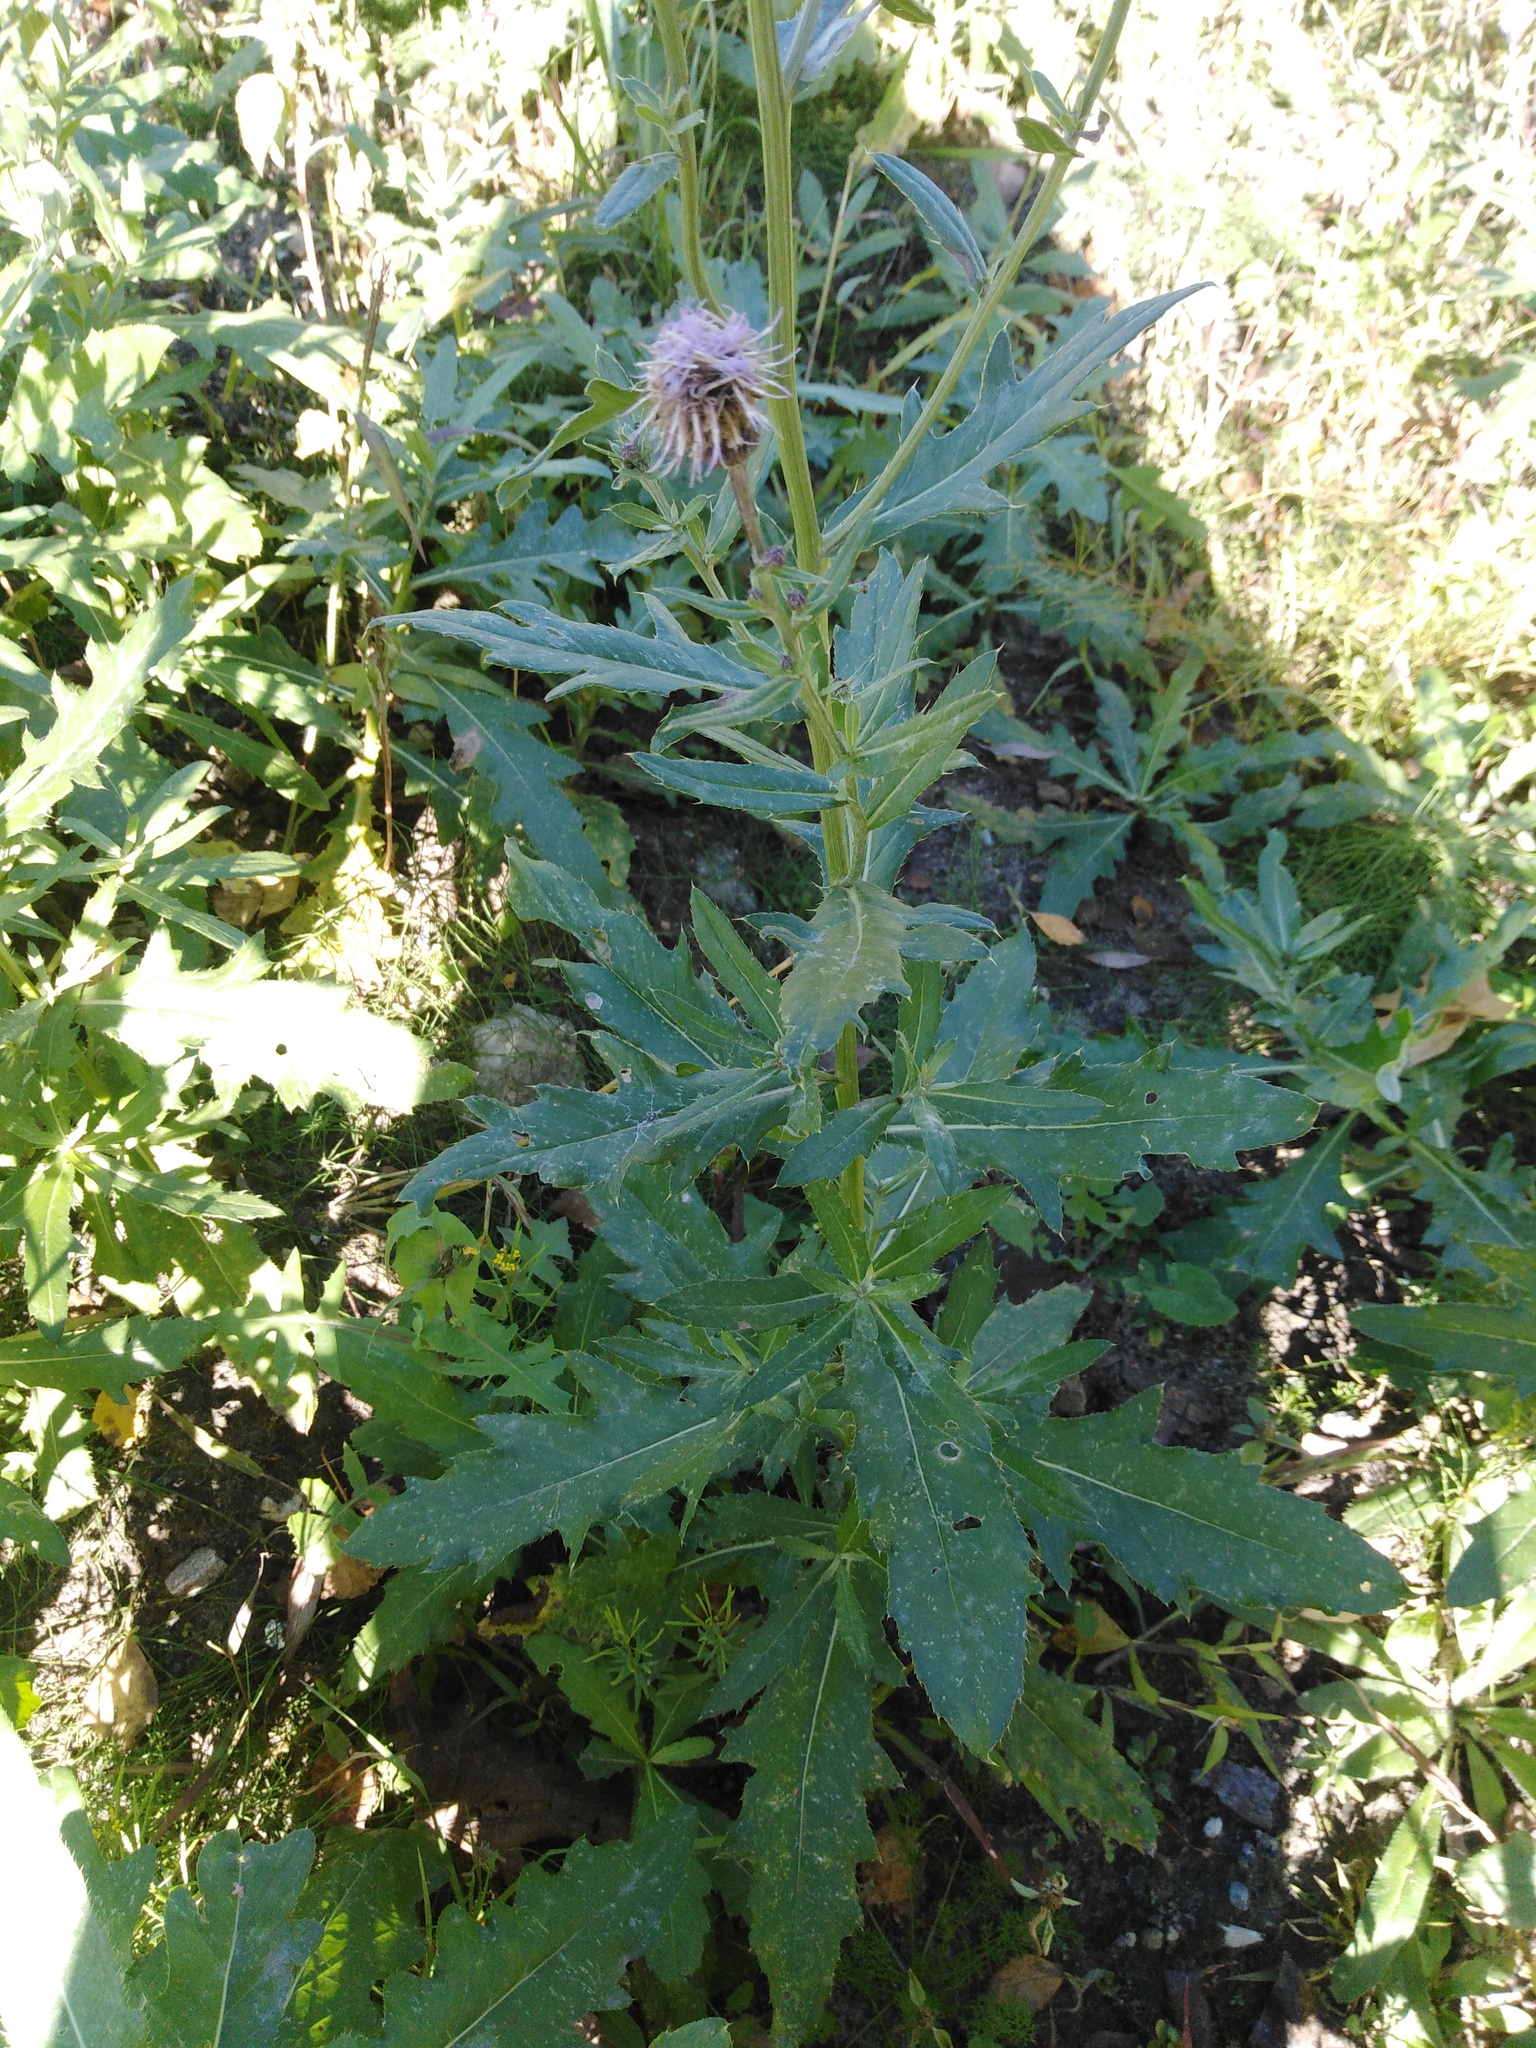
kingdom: Plantae
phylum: Tracheophyta
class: Magnoliopsida
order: Asterales
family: Asteraceae
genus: Cirsium
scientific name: Cirsium arvense
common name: Creeping thistle
